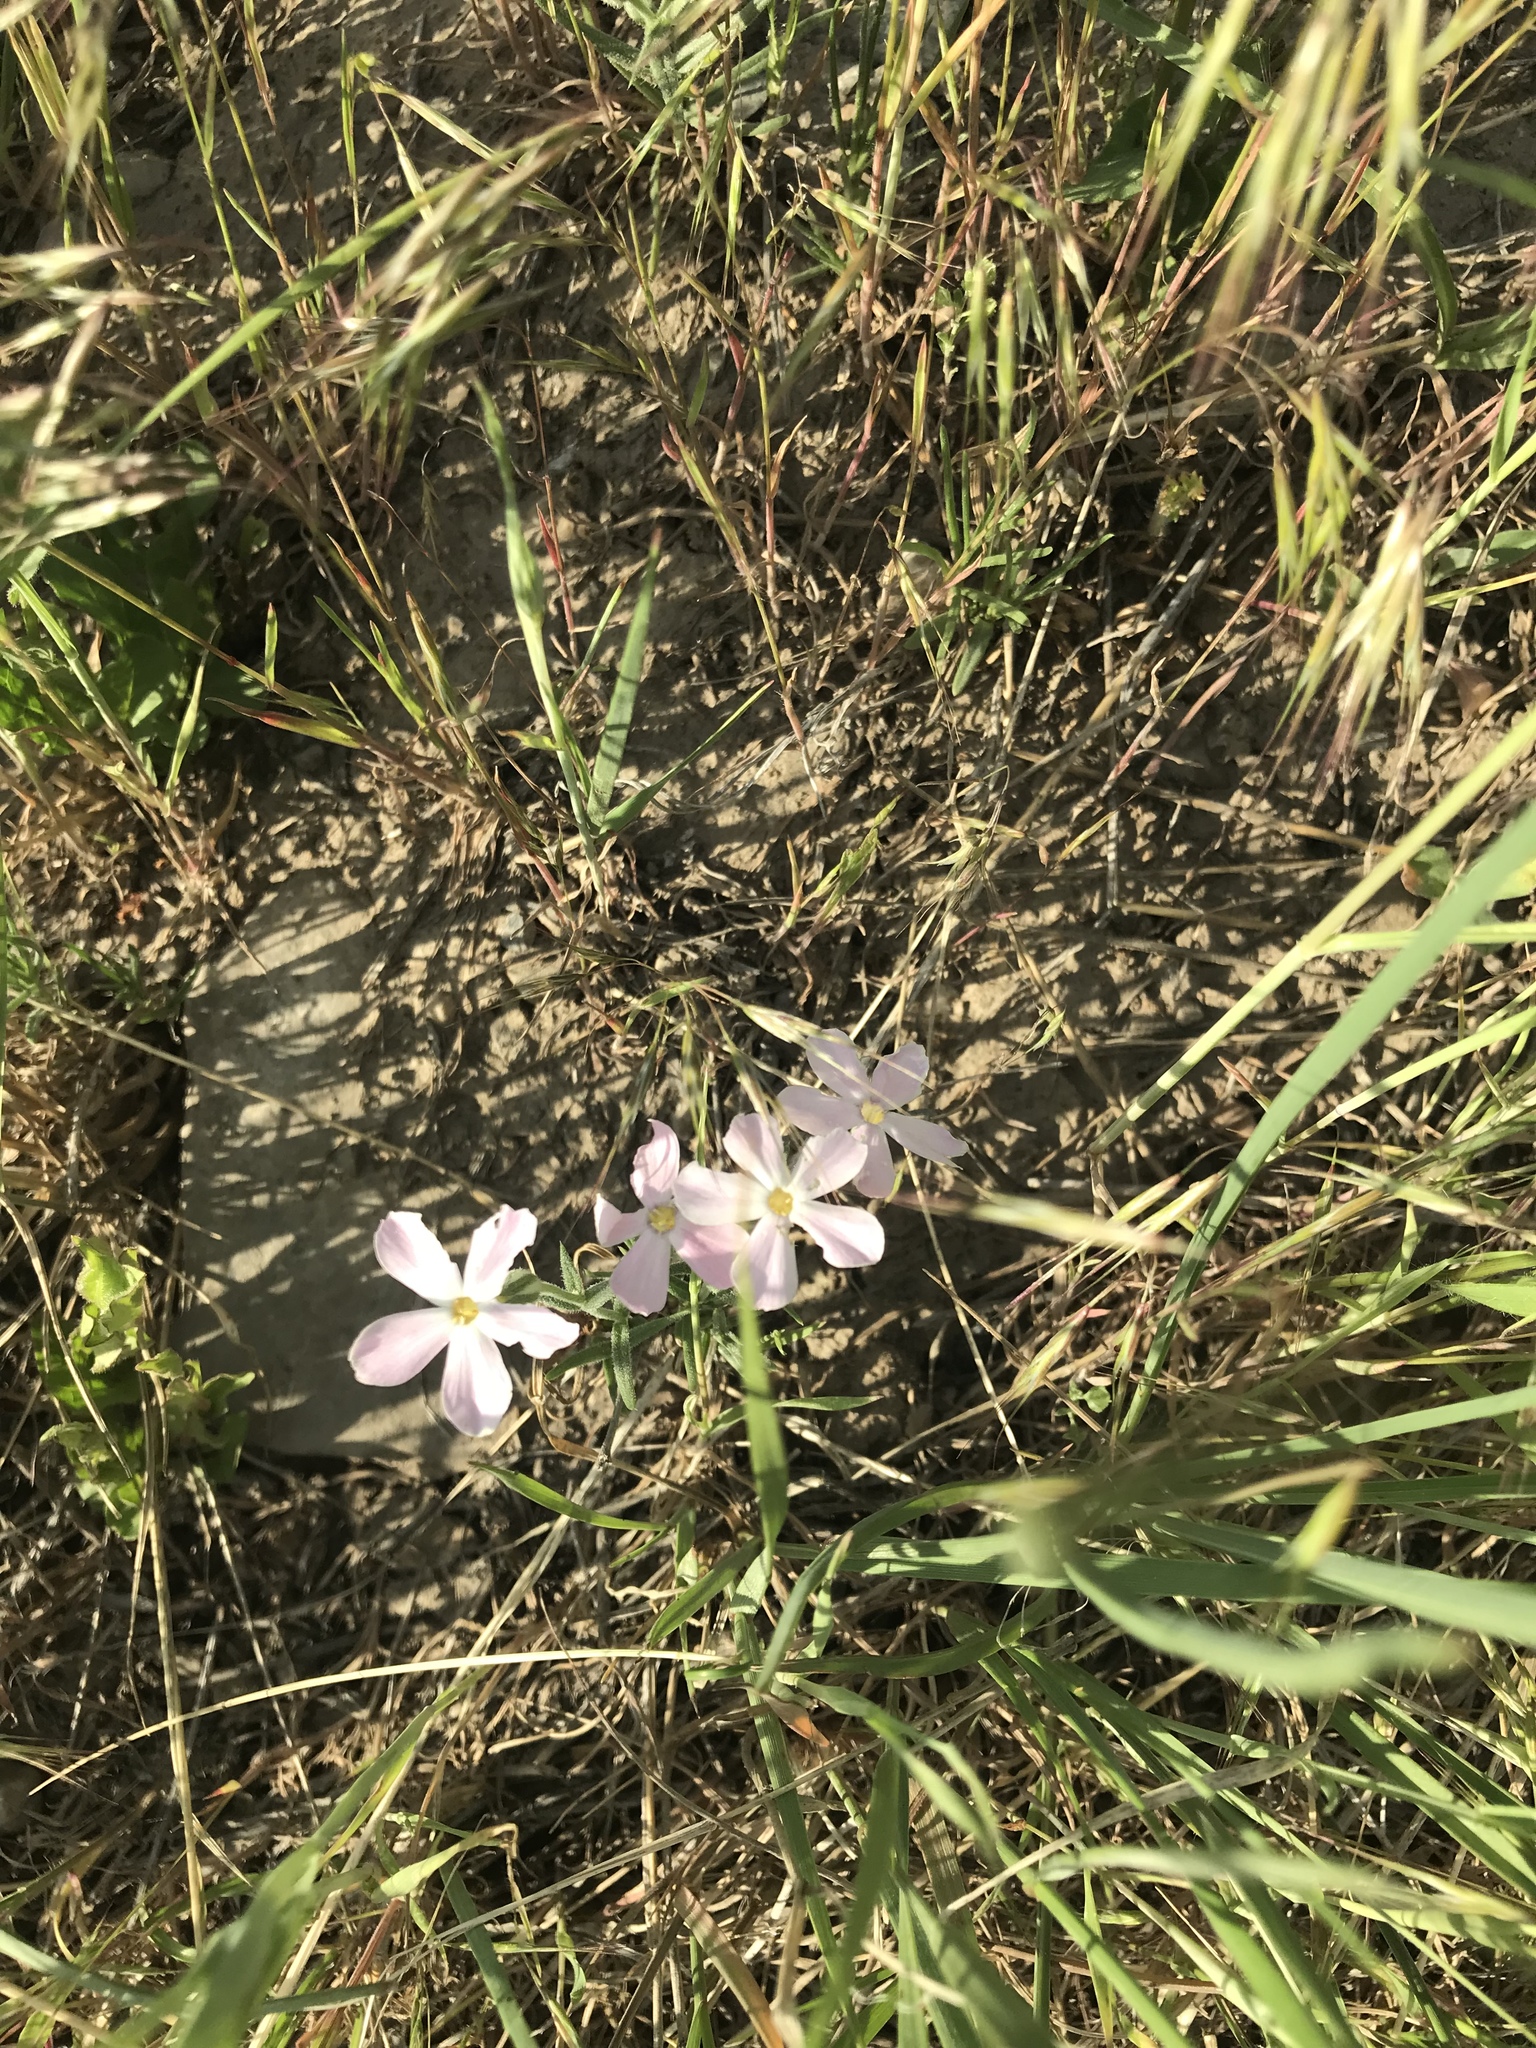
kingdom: Plantae
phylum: Tracheophyta
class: Magnoliopsida
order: Ericales
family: Polemoniaceae
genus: Phlox
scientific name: Phlox longifolia
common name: Longleaf phlox
